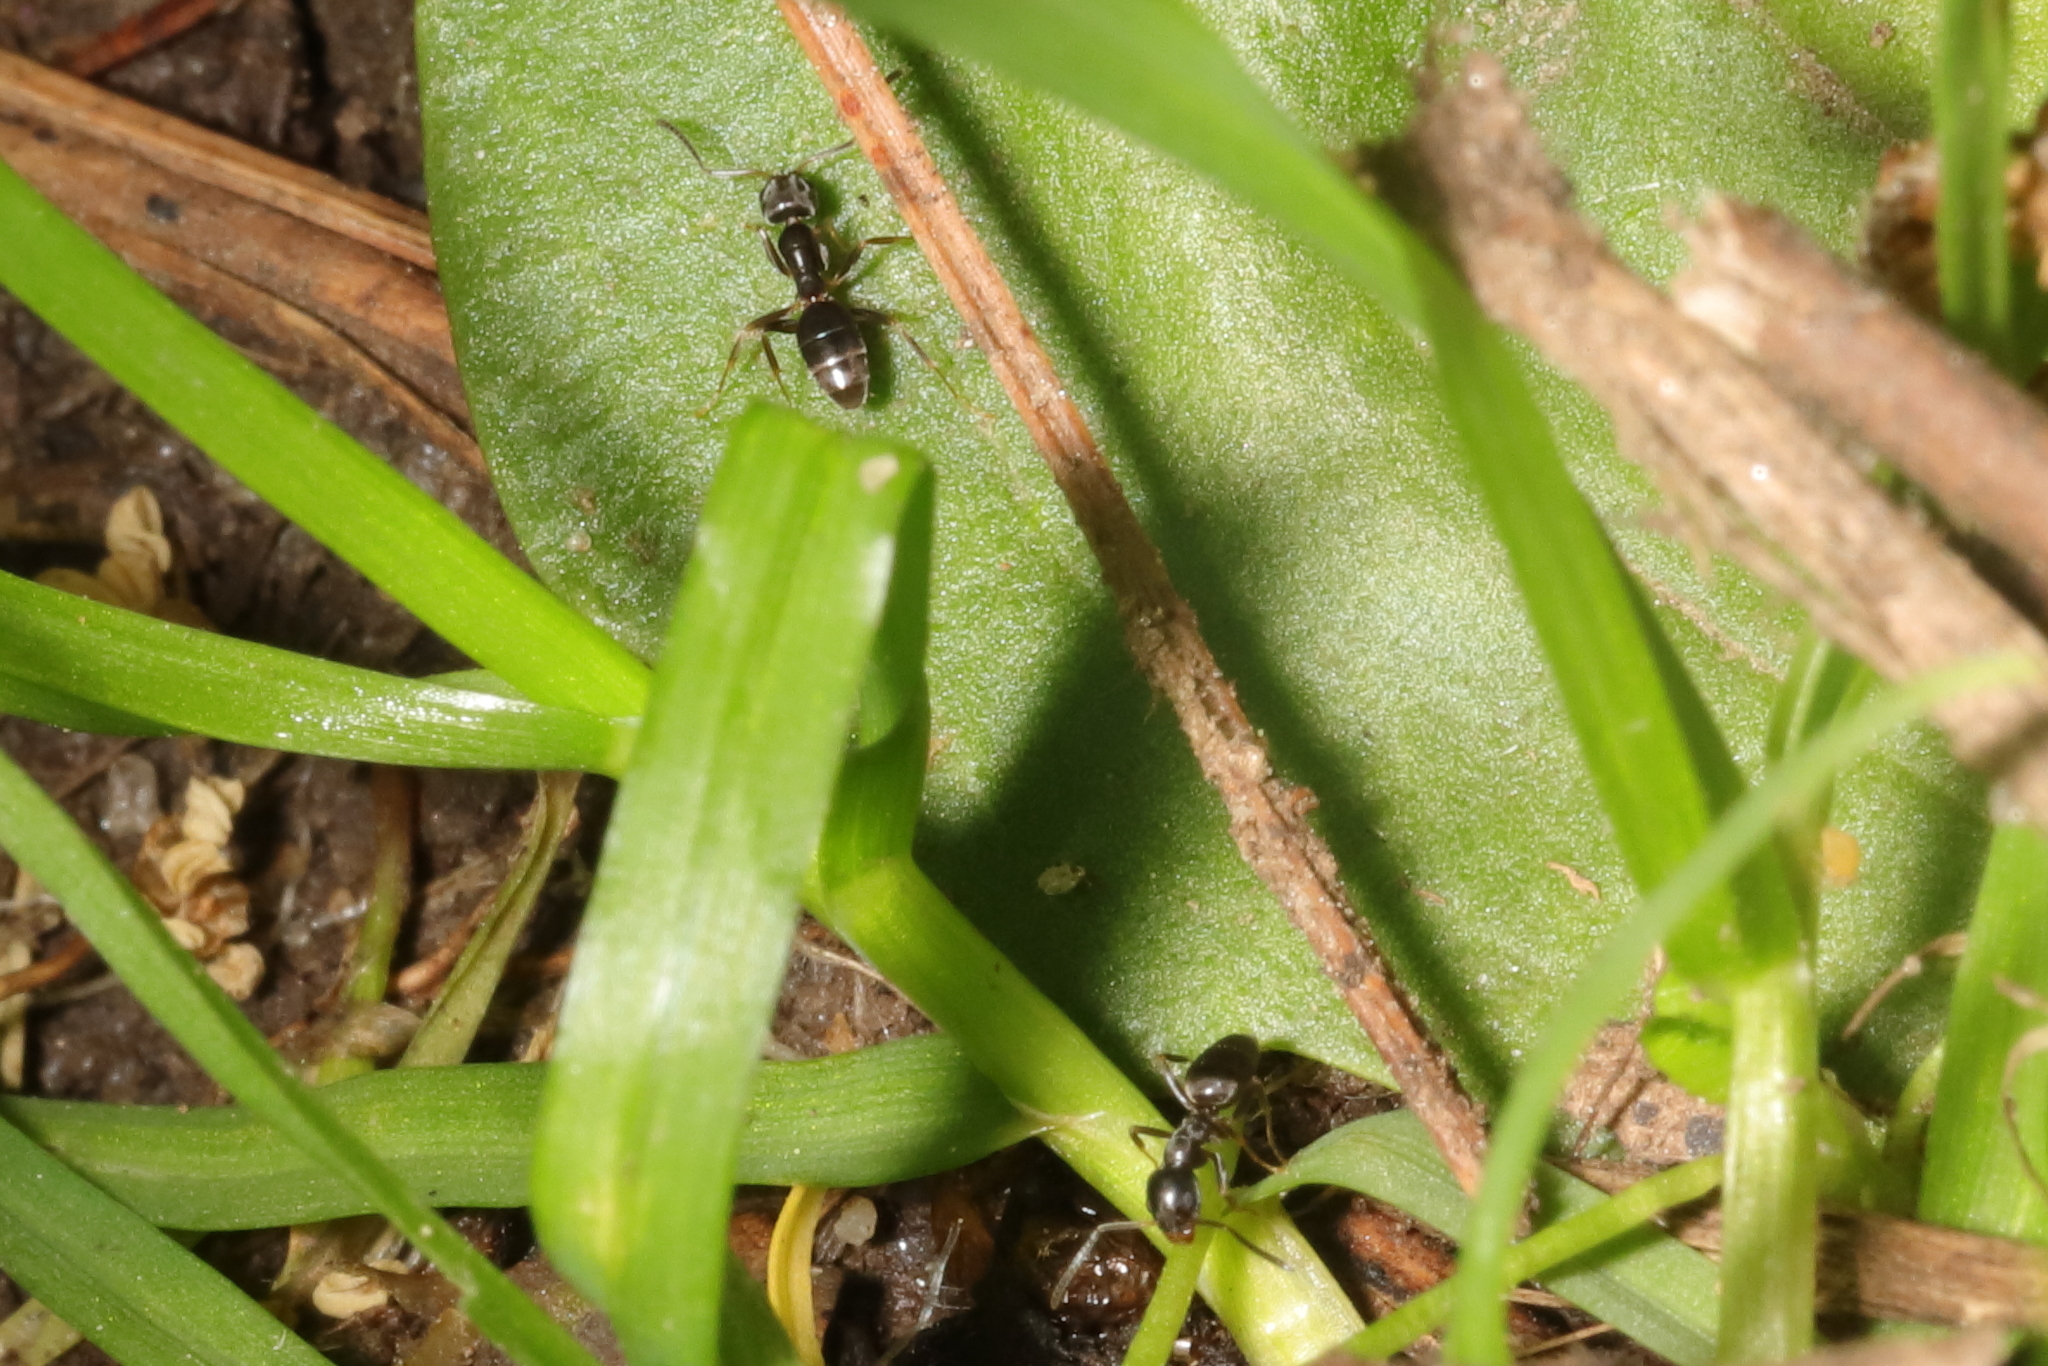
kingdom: Animalia
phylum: Arthropoda
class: Insecta
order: Hymenoptera
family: Formicidae
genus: Tapinoma
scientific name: Tapinoma sessile
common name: Odorous house ant
